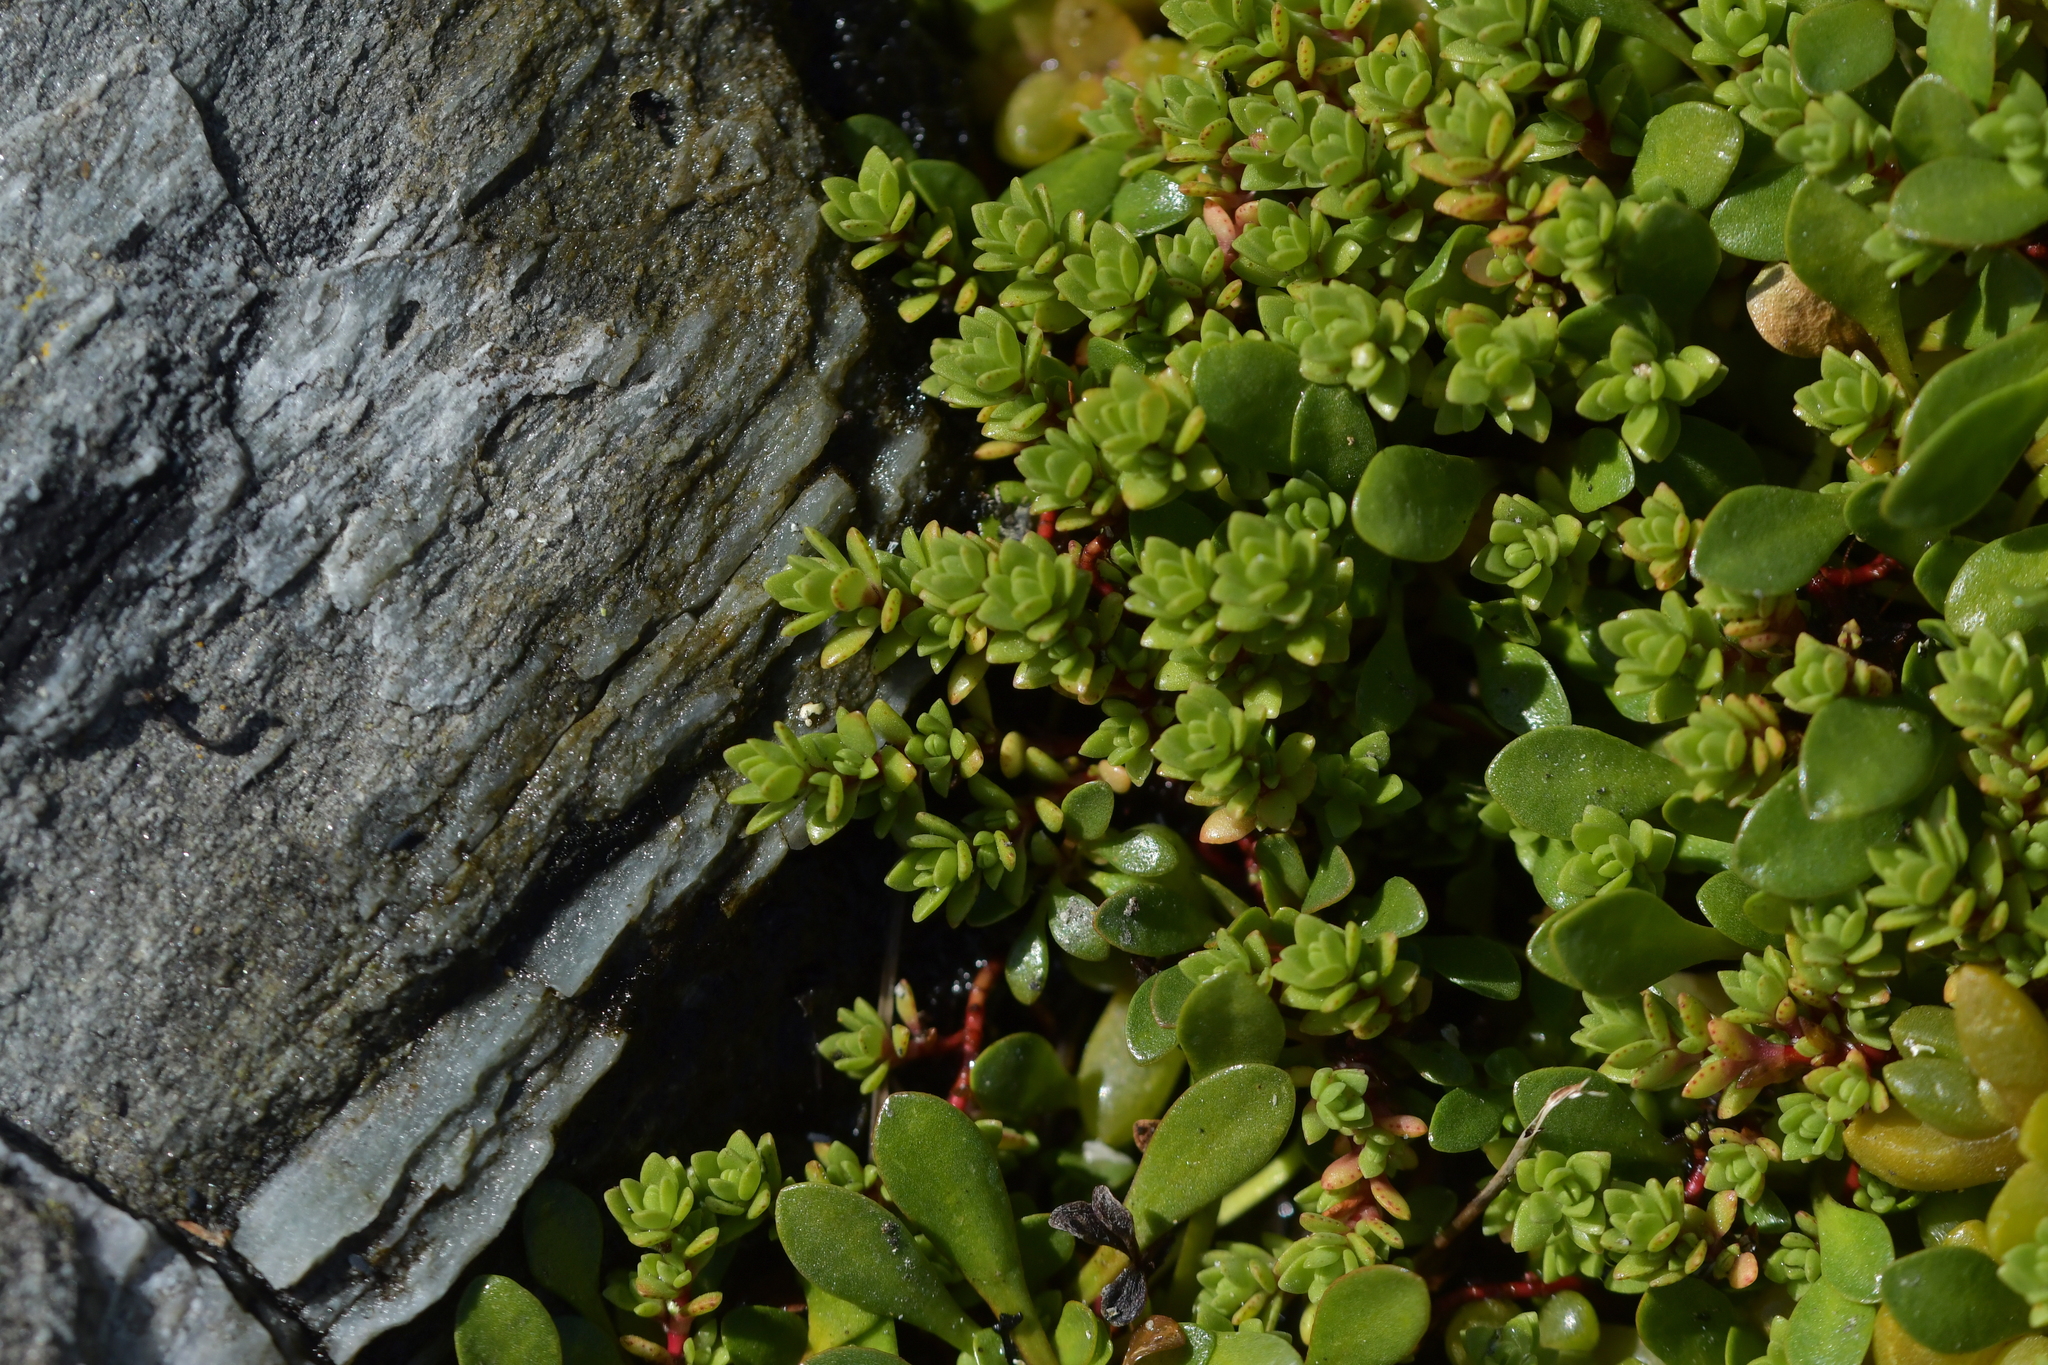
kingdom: Plantae
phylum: Tracheophyta
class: Magnoliopsida
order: Saxifragales
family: Crassulaceae
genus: Crassula
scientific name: Crassula moschata
